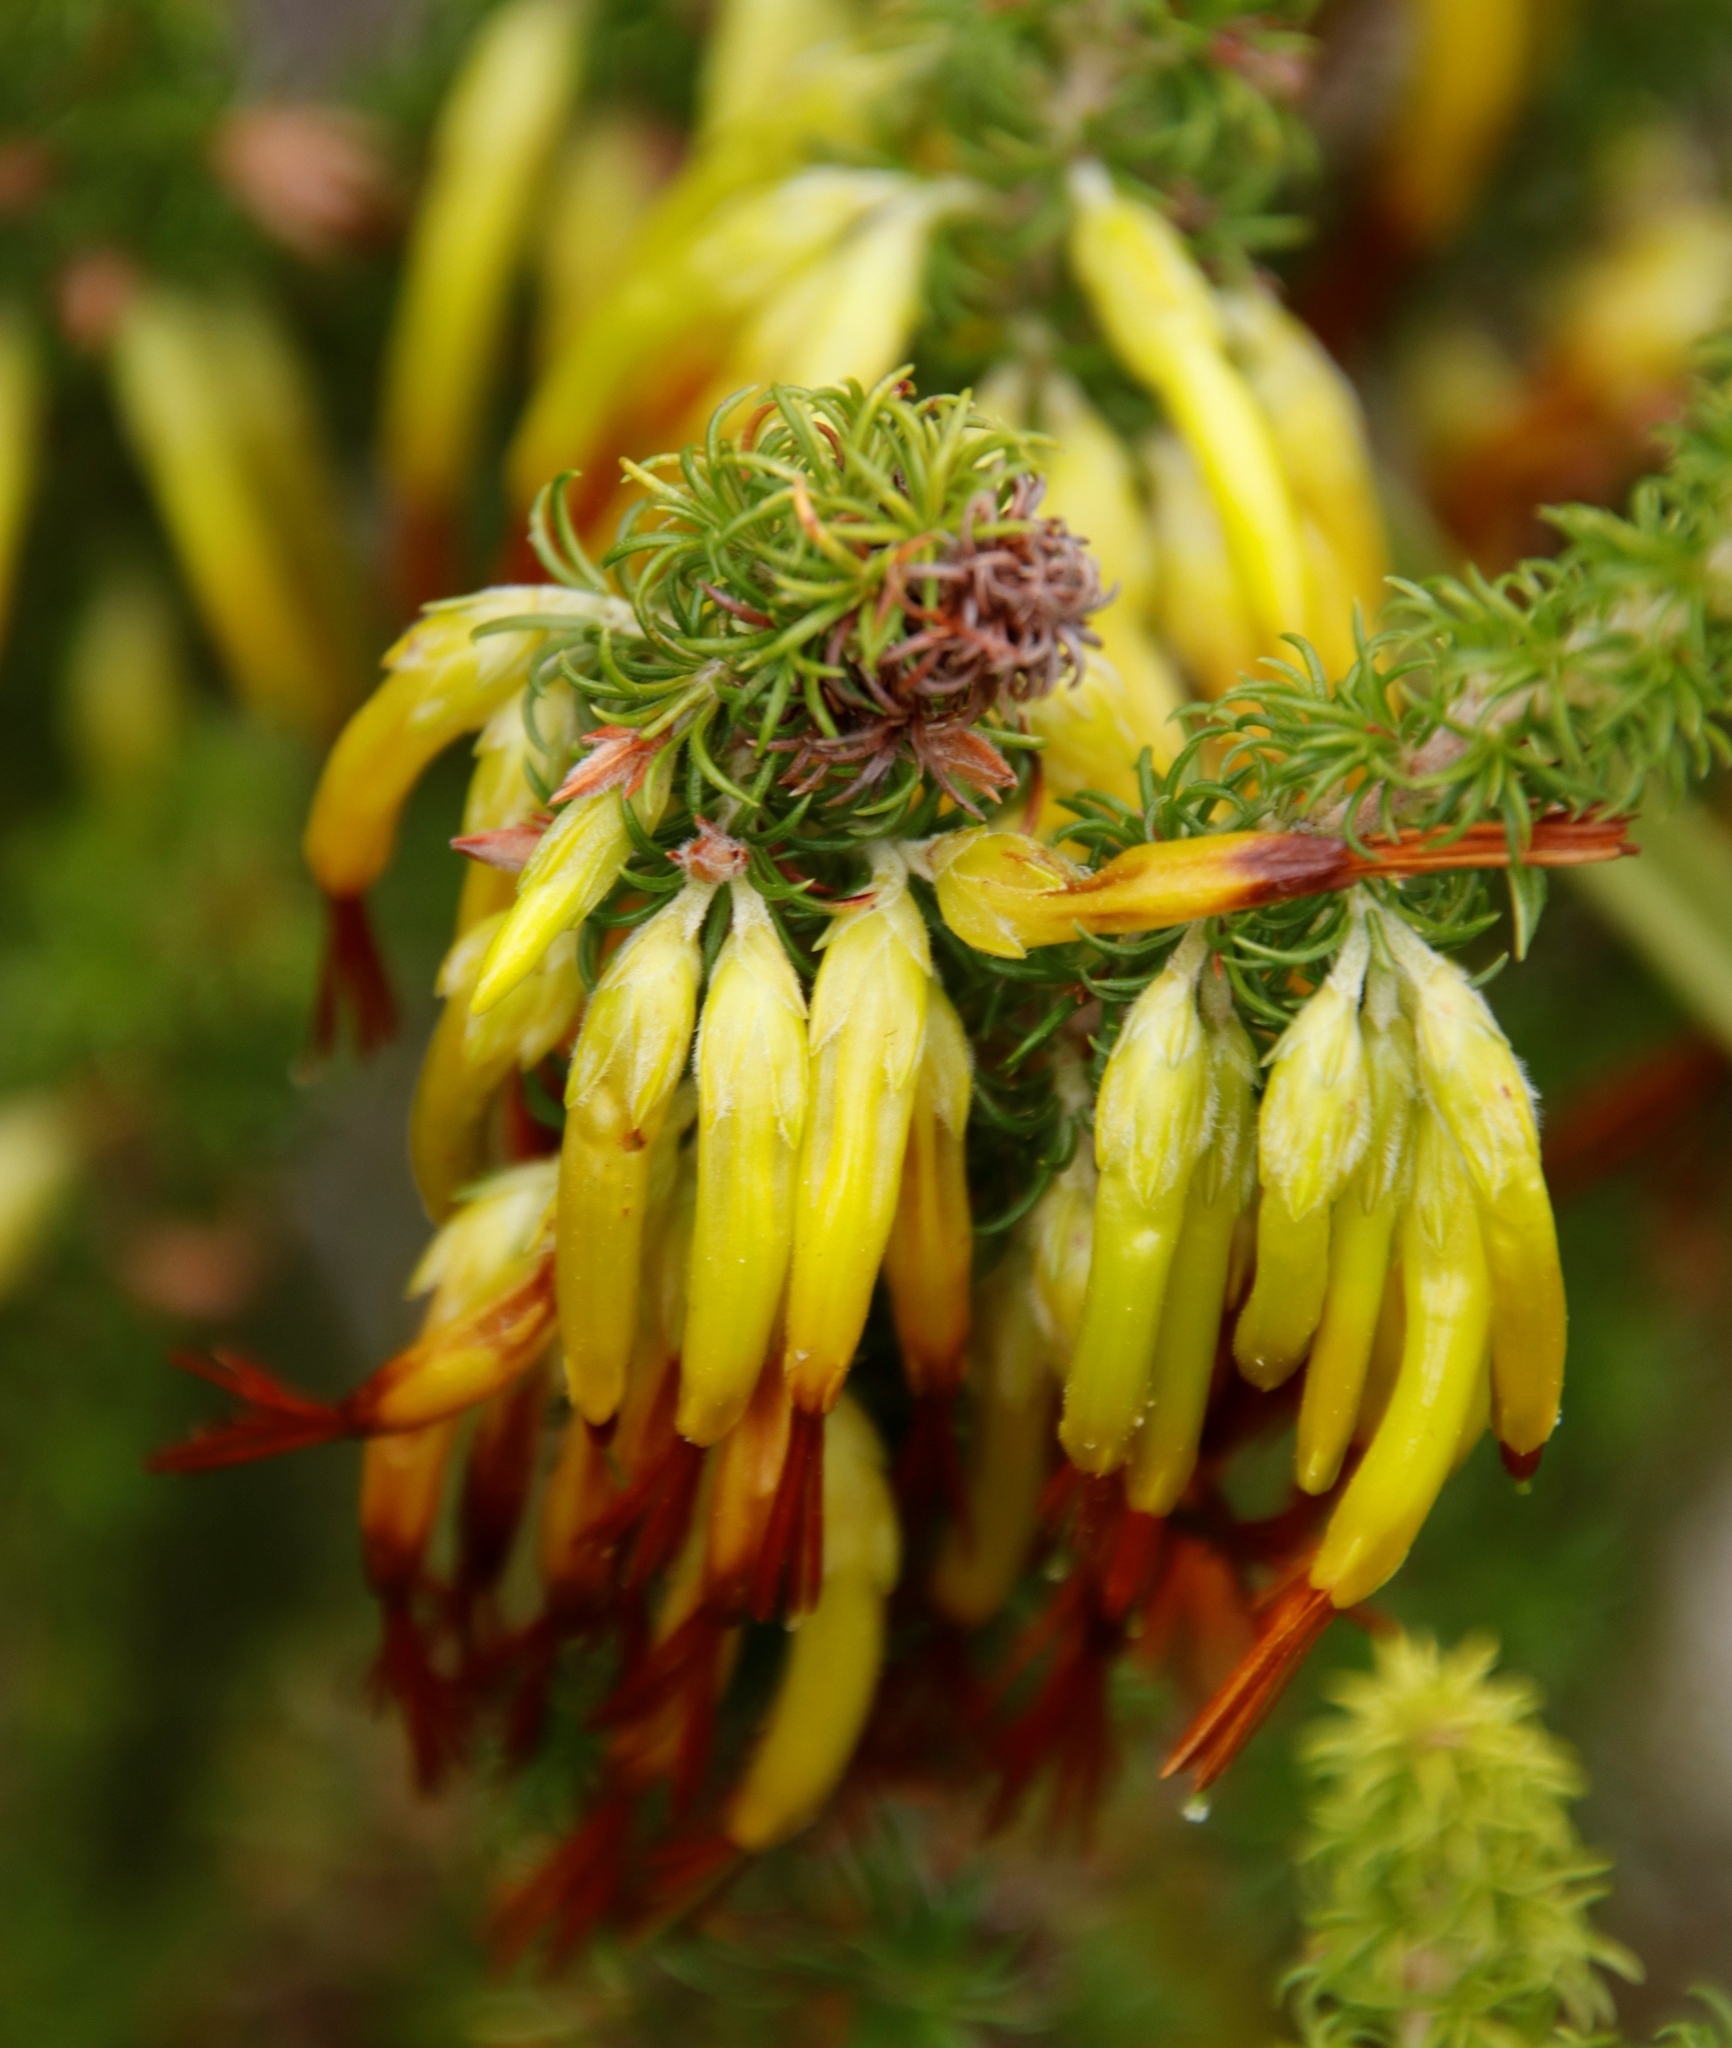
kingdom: Plantae
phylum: Tracheophyta
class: Magnoliopsida
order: Ericales
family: Ericaceae
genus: Erica
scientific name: Erica coccinea
